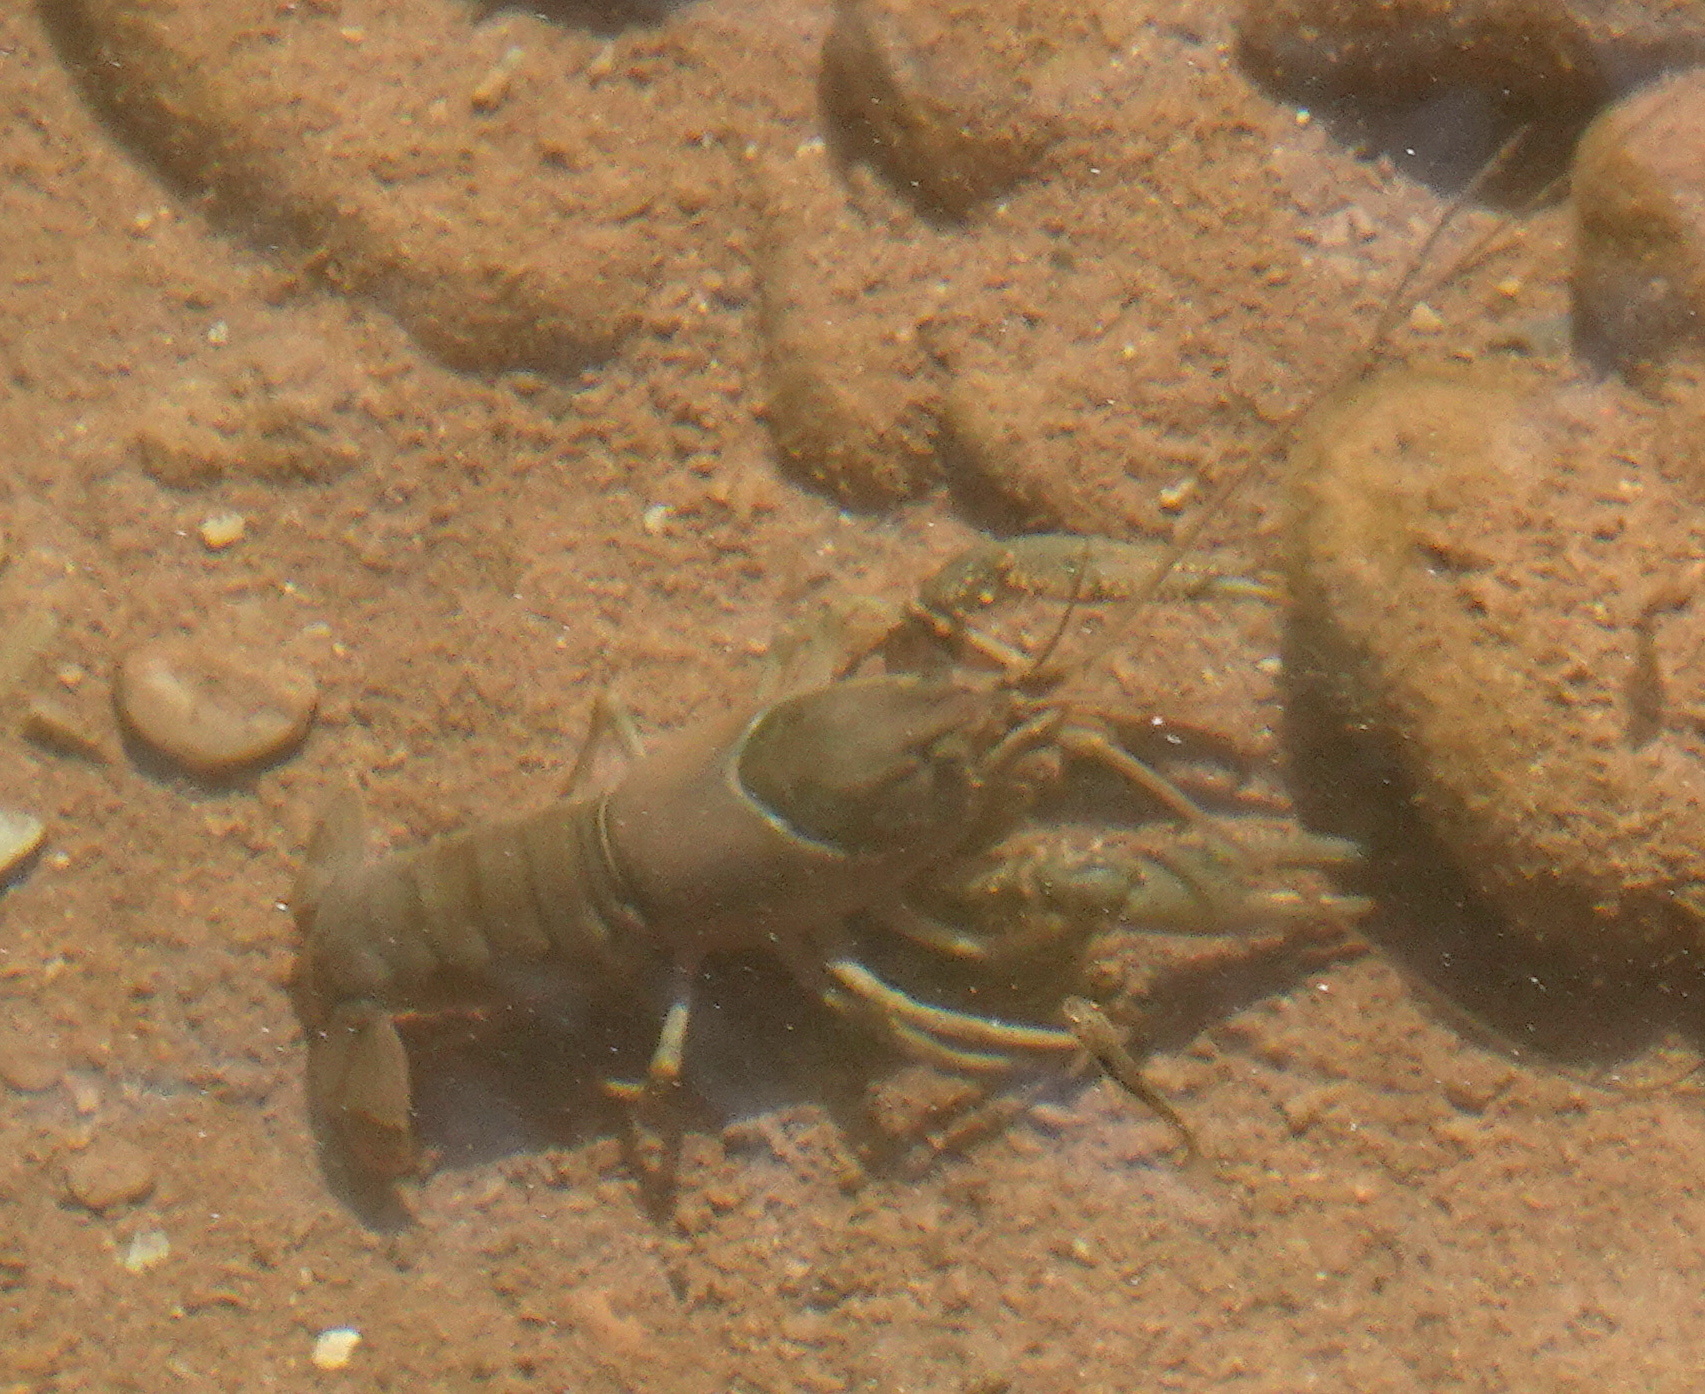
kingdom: Animalia
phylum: Arthropoda
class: Malacostraca
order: Decapoda
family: Cambaridae
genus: Faxonius
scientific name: Faxonius virilis
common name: Virile crayfish
